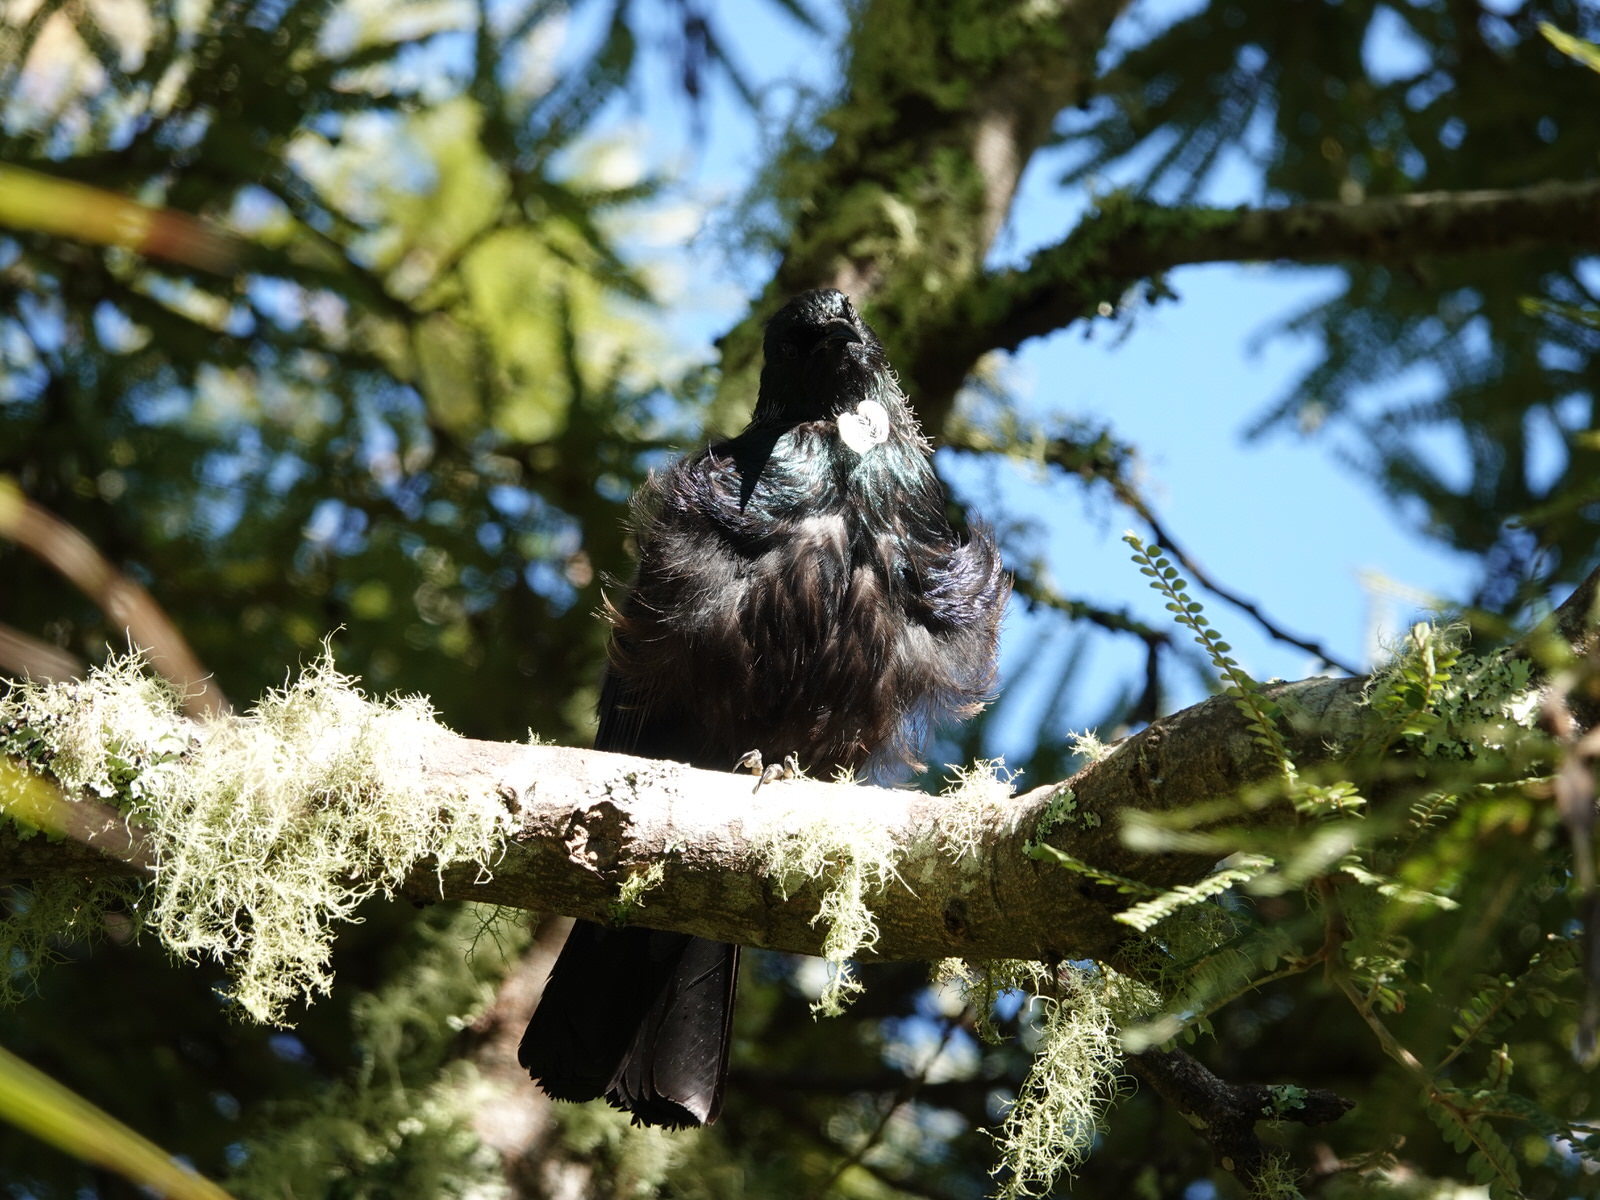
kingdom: Animalia
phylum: Chordata
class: Aves
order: Passeriformes
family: Meliphagidae
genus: Prosthemadera
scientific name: Prosthemadera novaeseelandiae
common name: Tui
